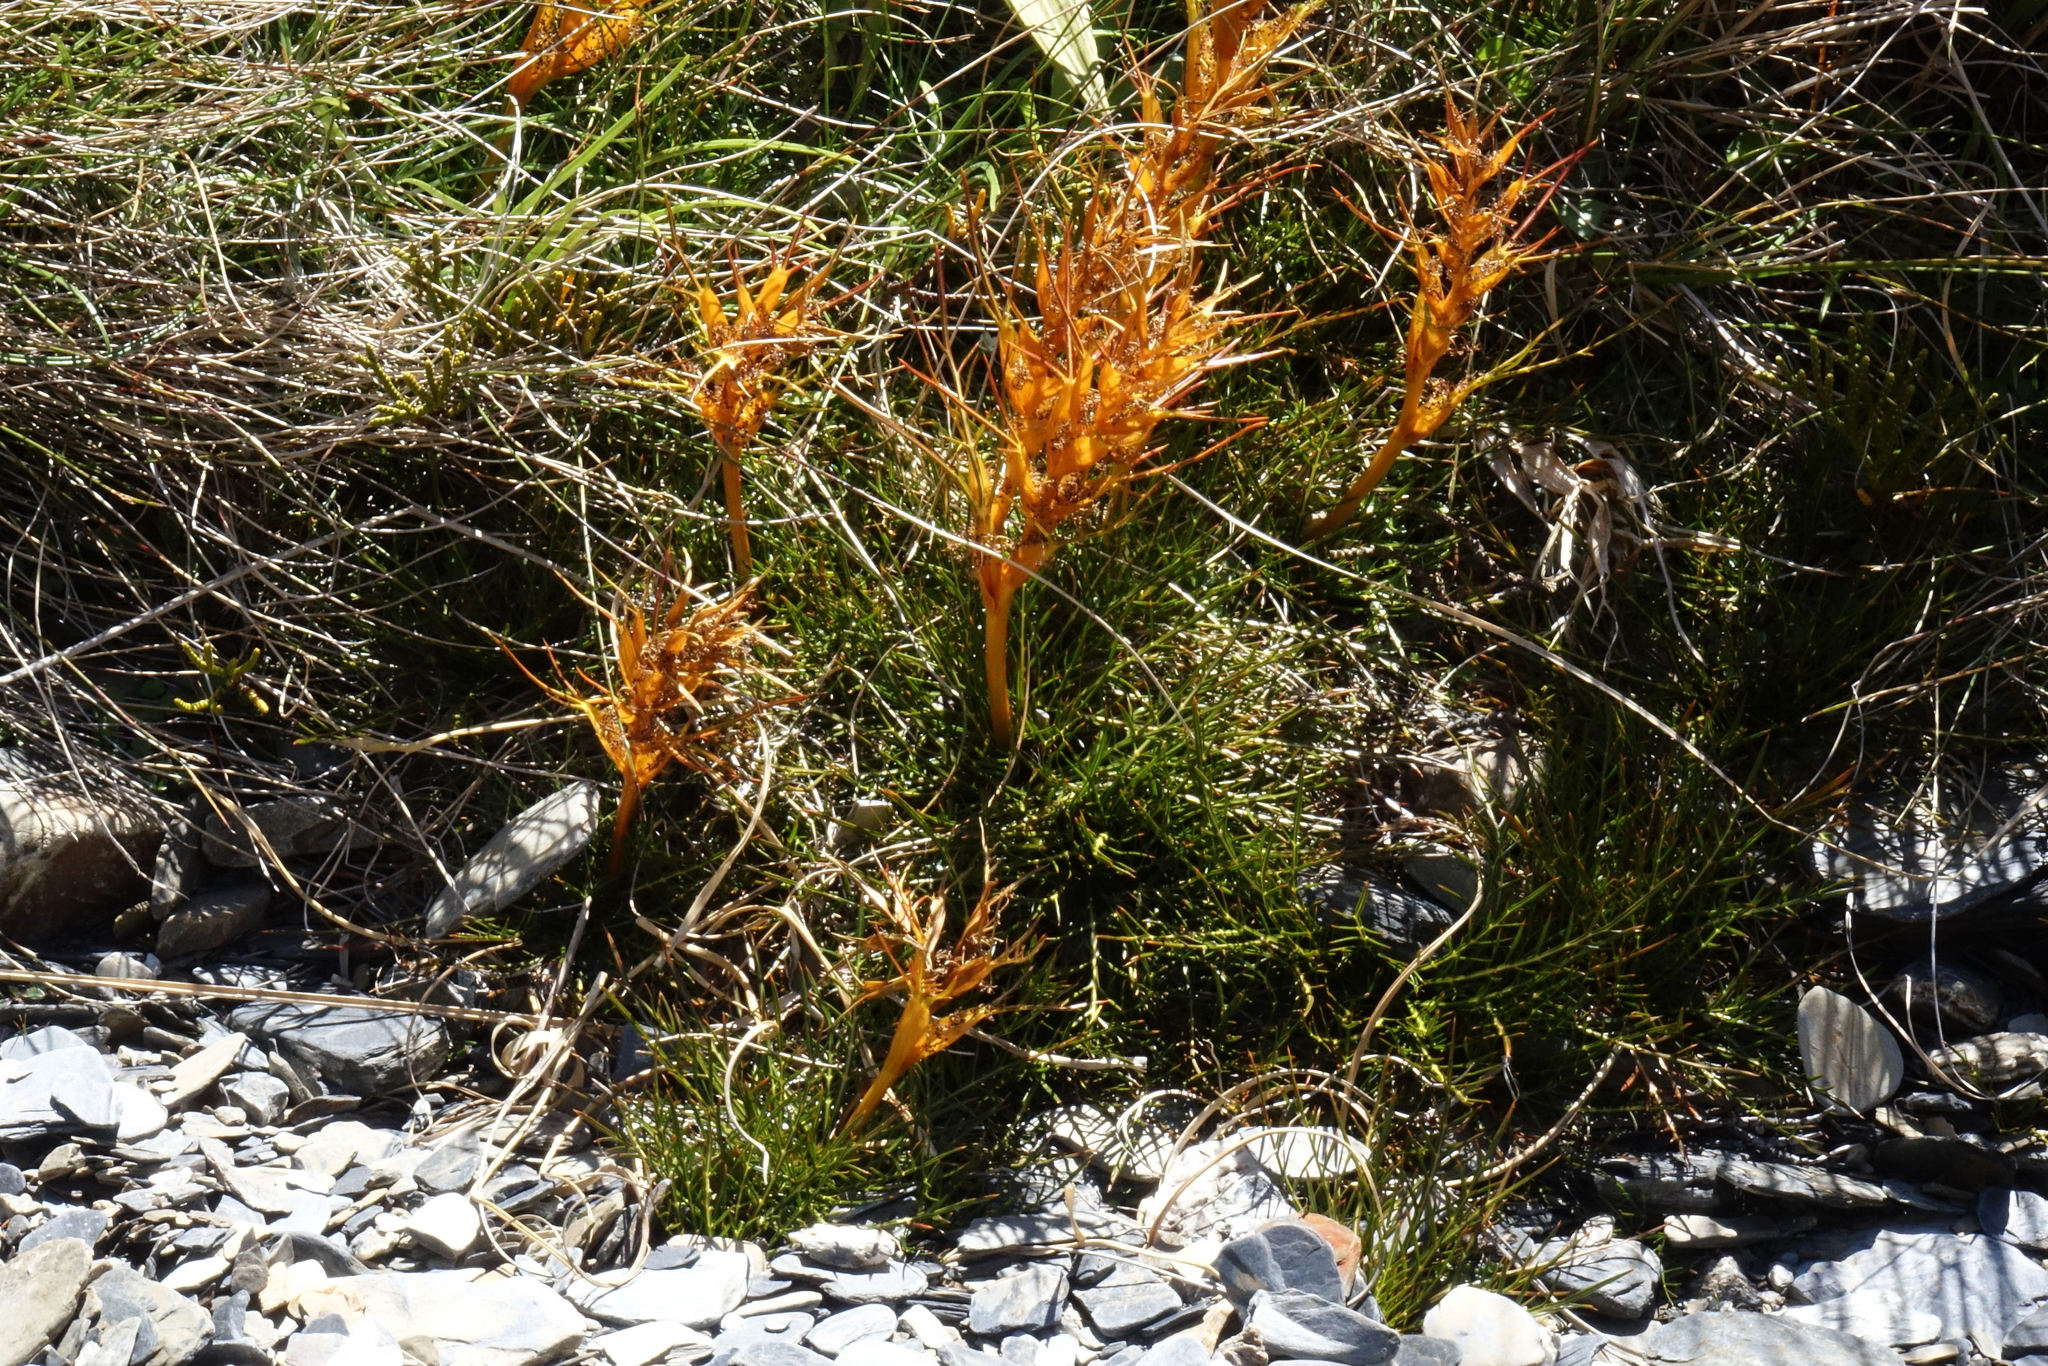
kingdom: Plantae
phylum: Tracheophyta
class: Magnoliopsida
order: Apiales
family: Apiaceae
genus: Aciphylla
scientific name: Aciphylla pinnatifida
